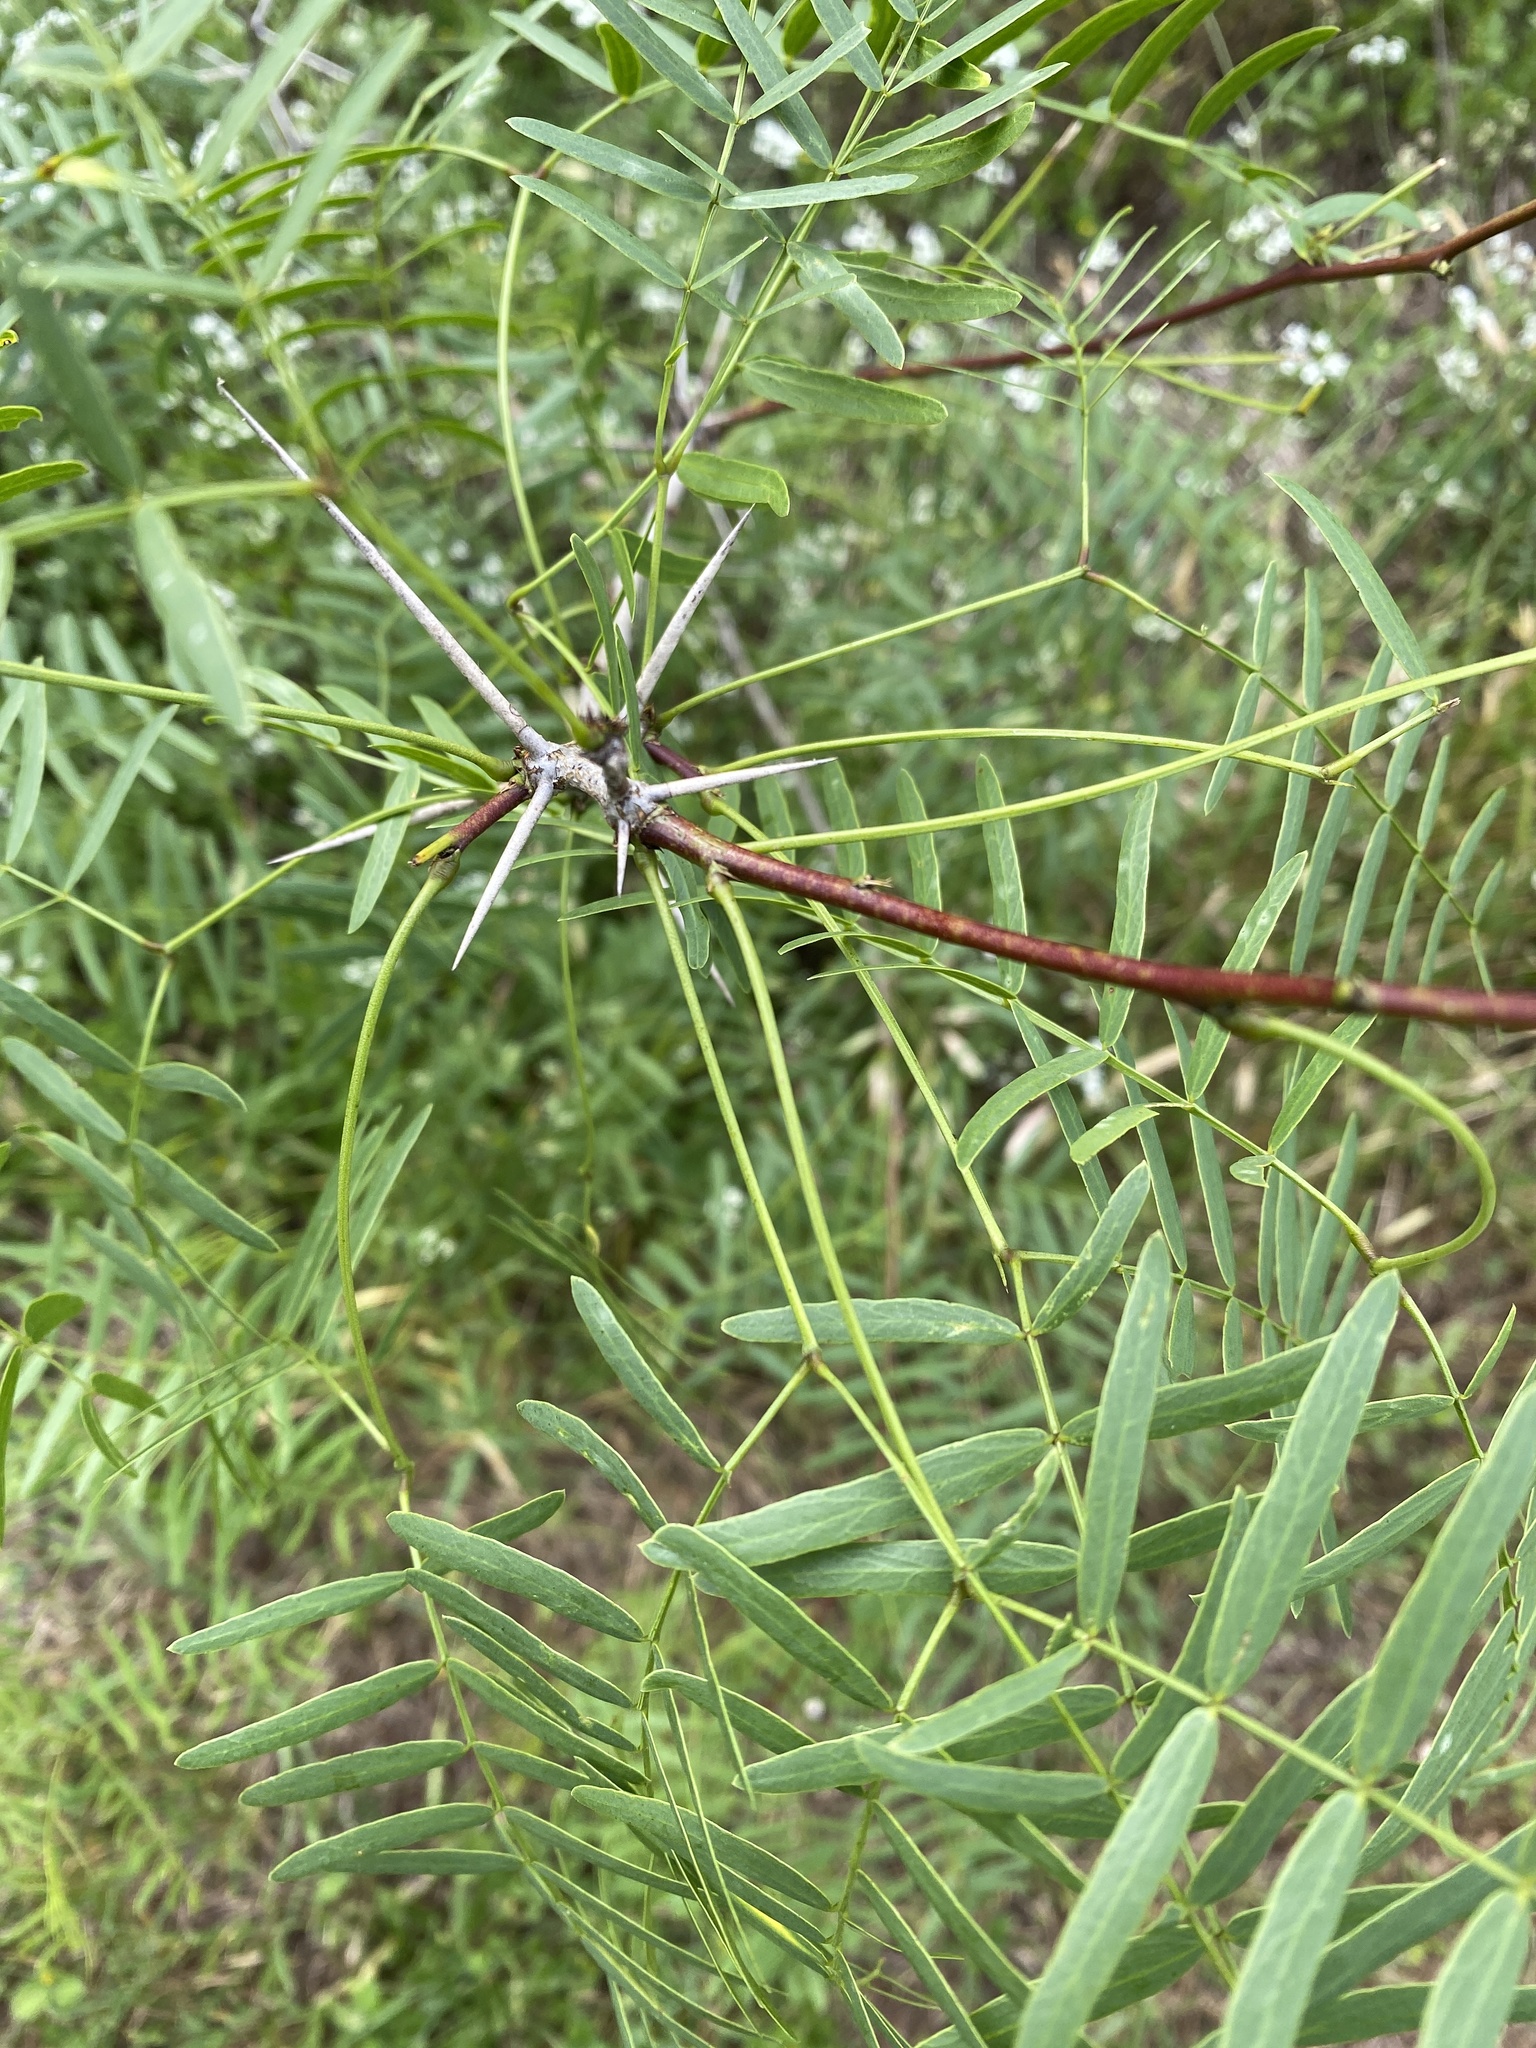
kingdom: Plantae
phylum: Tracheophyta
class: Magnoliopsida
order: Fabales
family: Fabaceae
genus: Prosopis
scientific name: Prosopis glandulosa
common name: Honey mesquite
